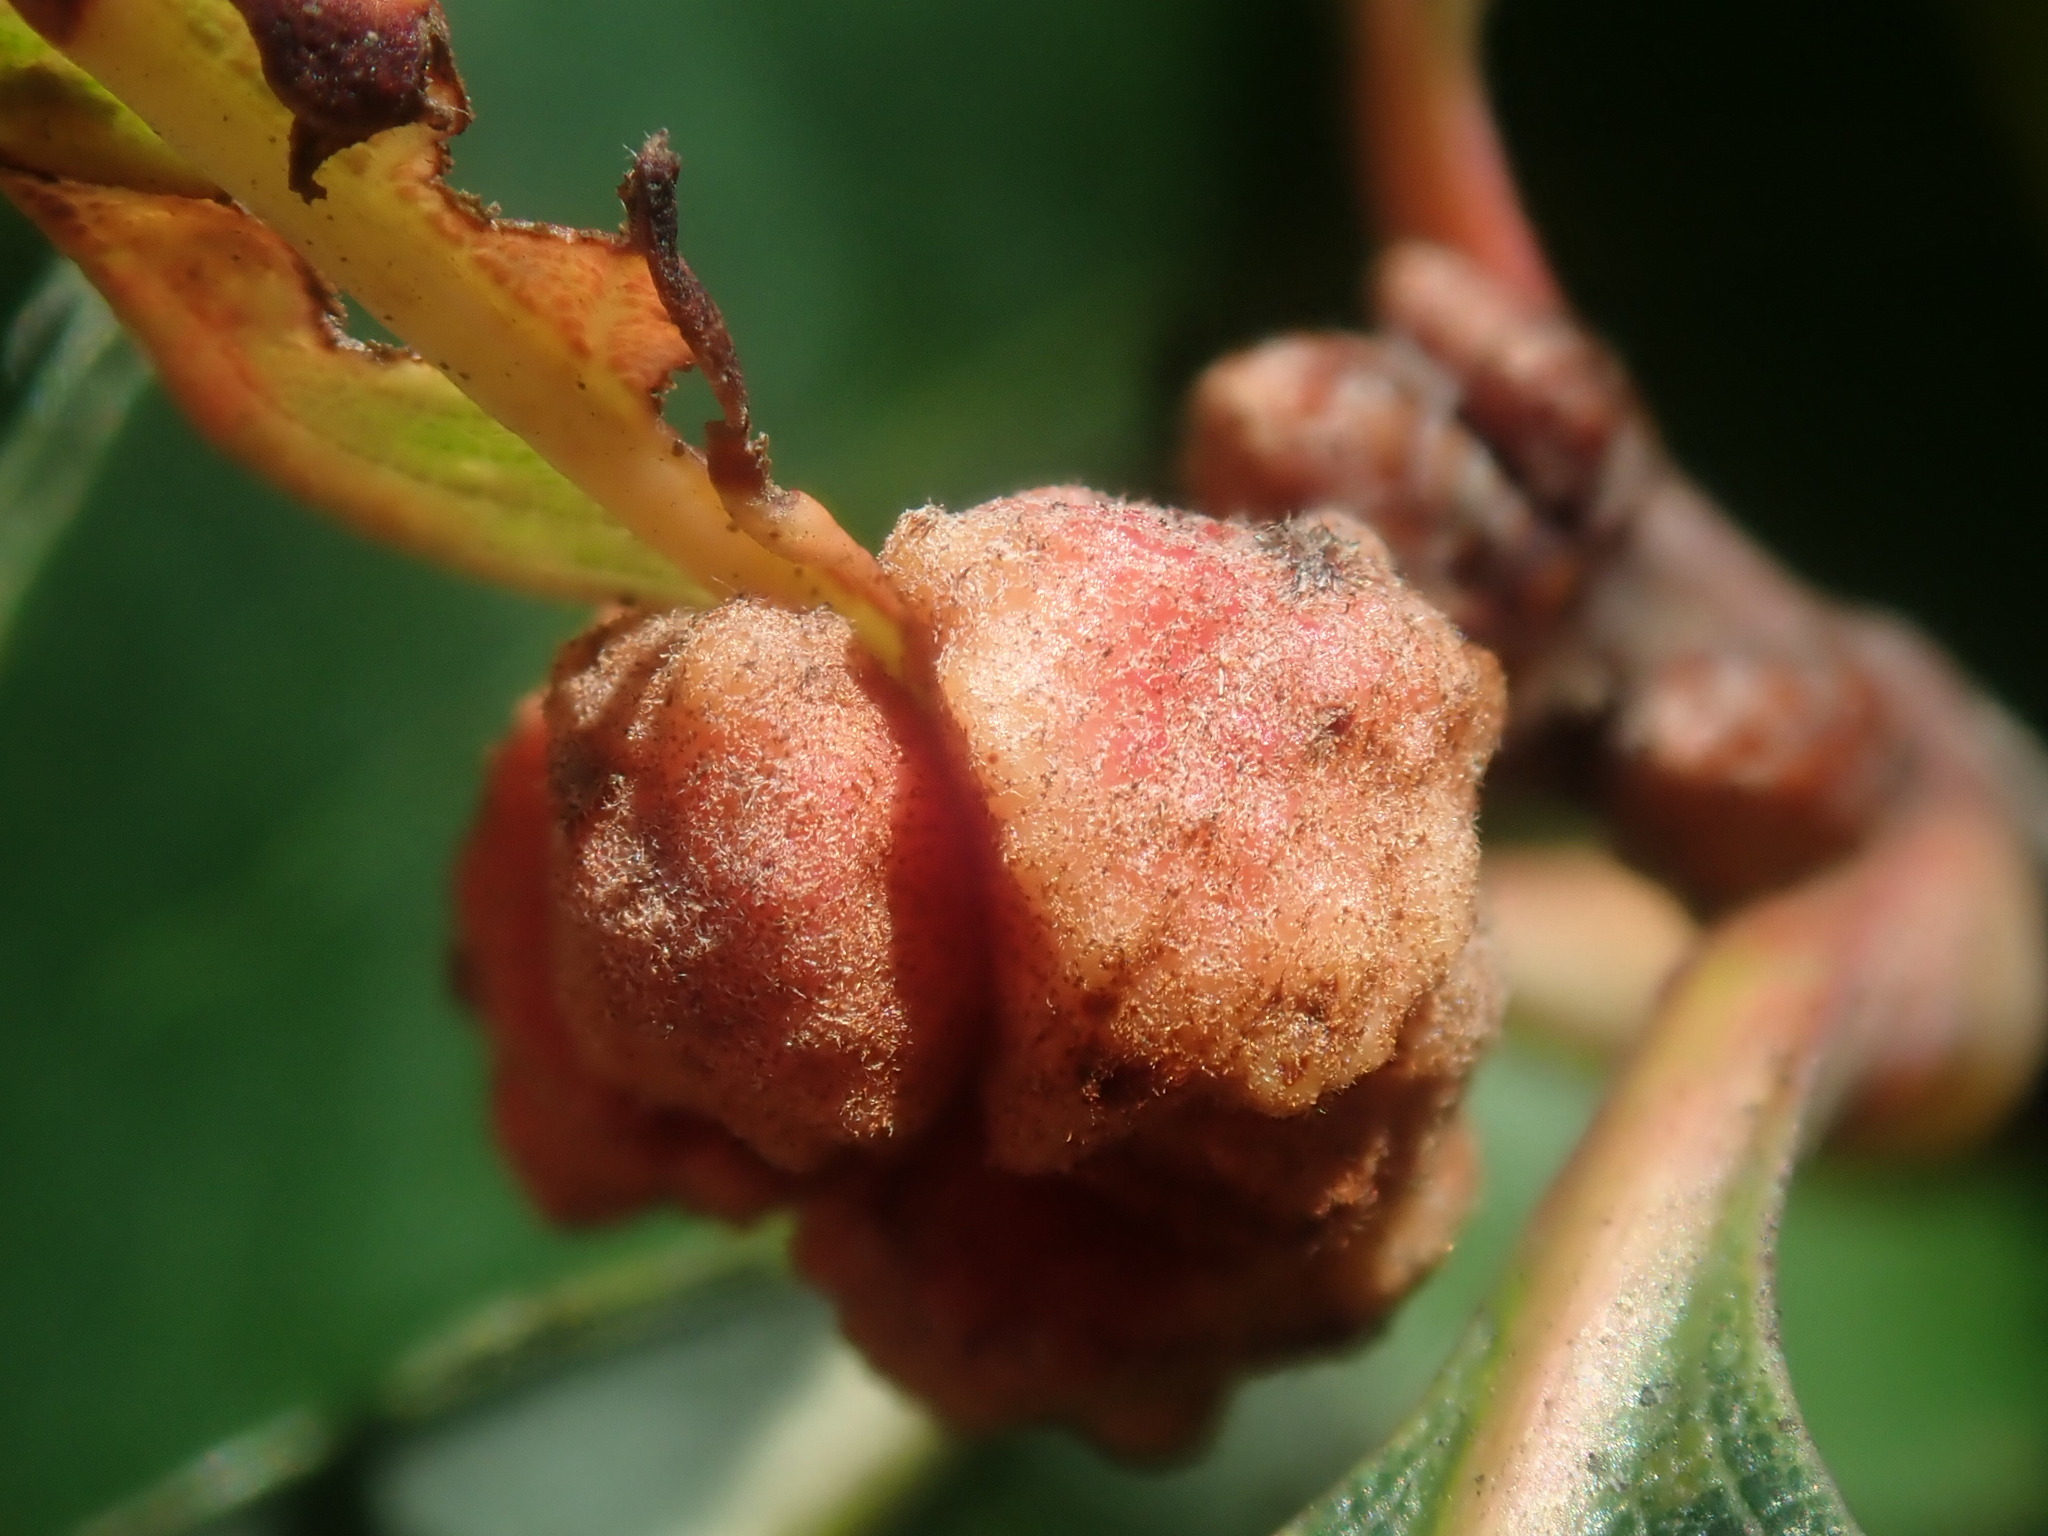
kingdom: Animalia
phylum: Arthropoda
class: Insecta
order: Hymenoptera
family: Cynipidae
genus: Andricus
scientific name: Andricus
